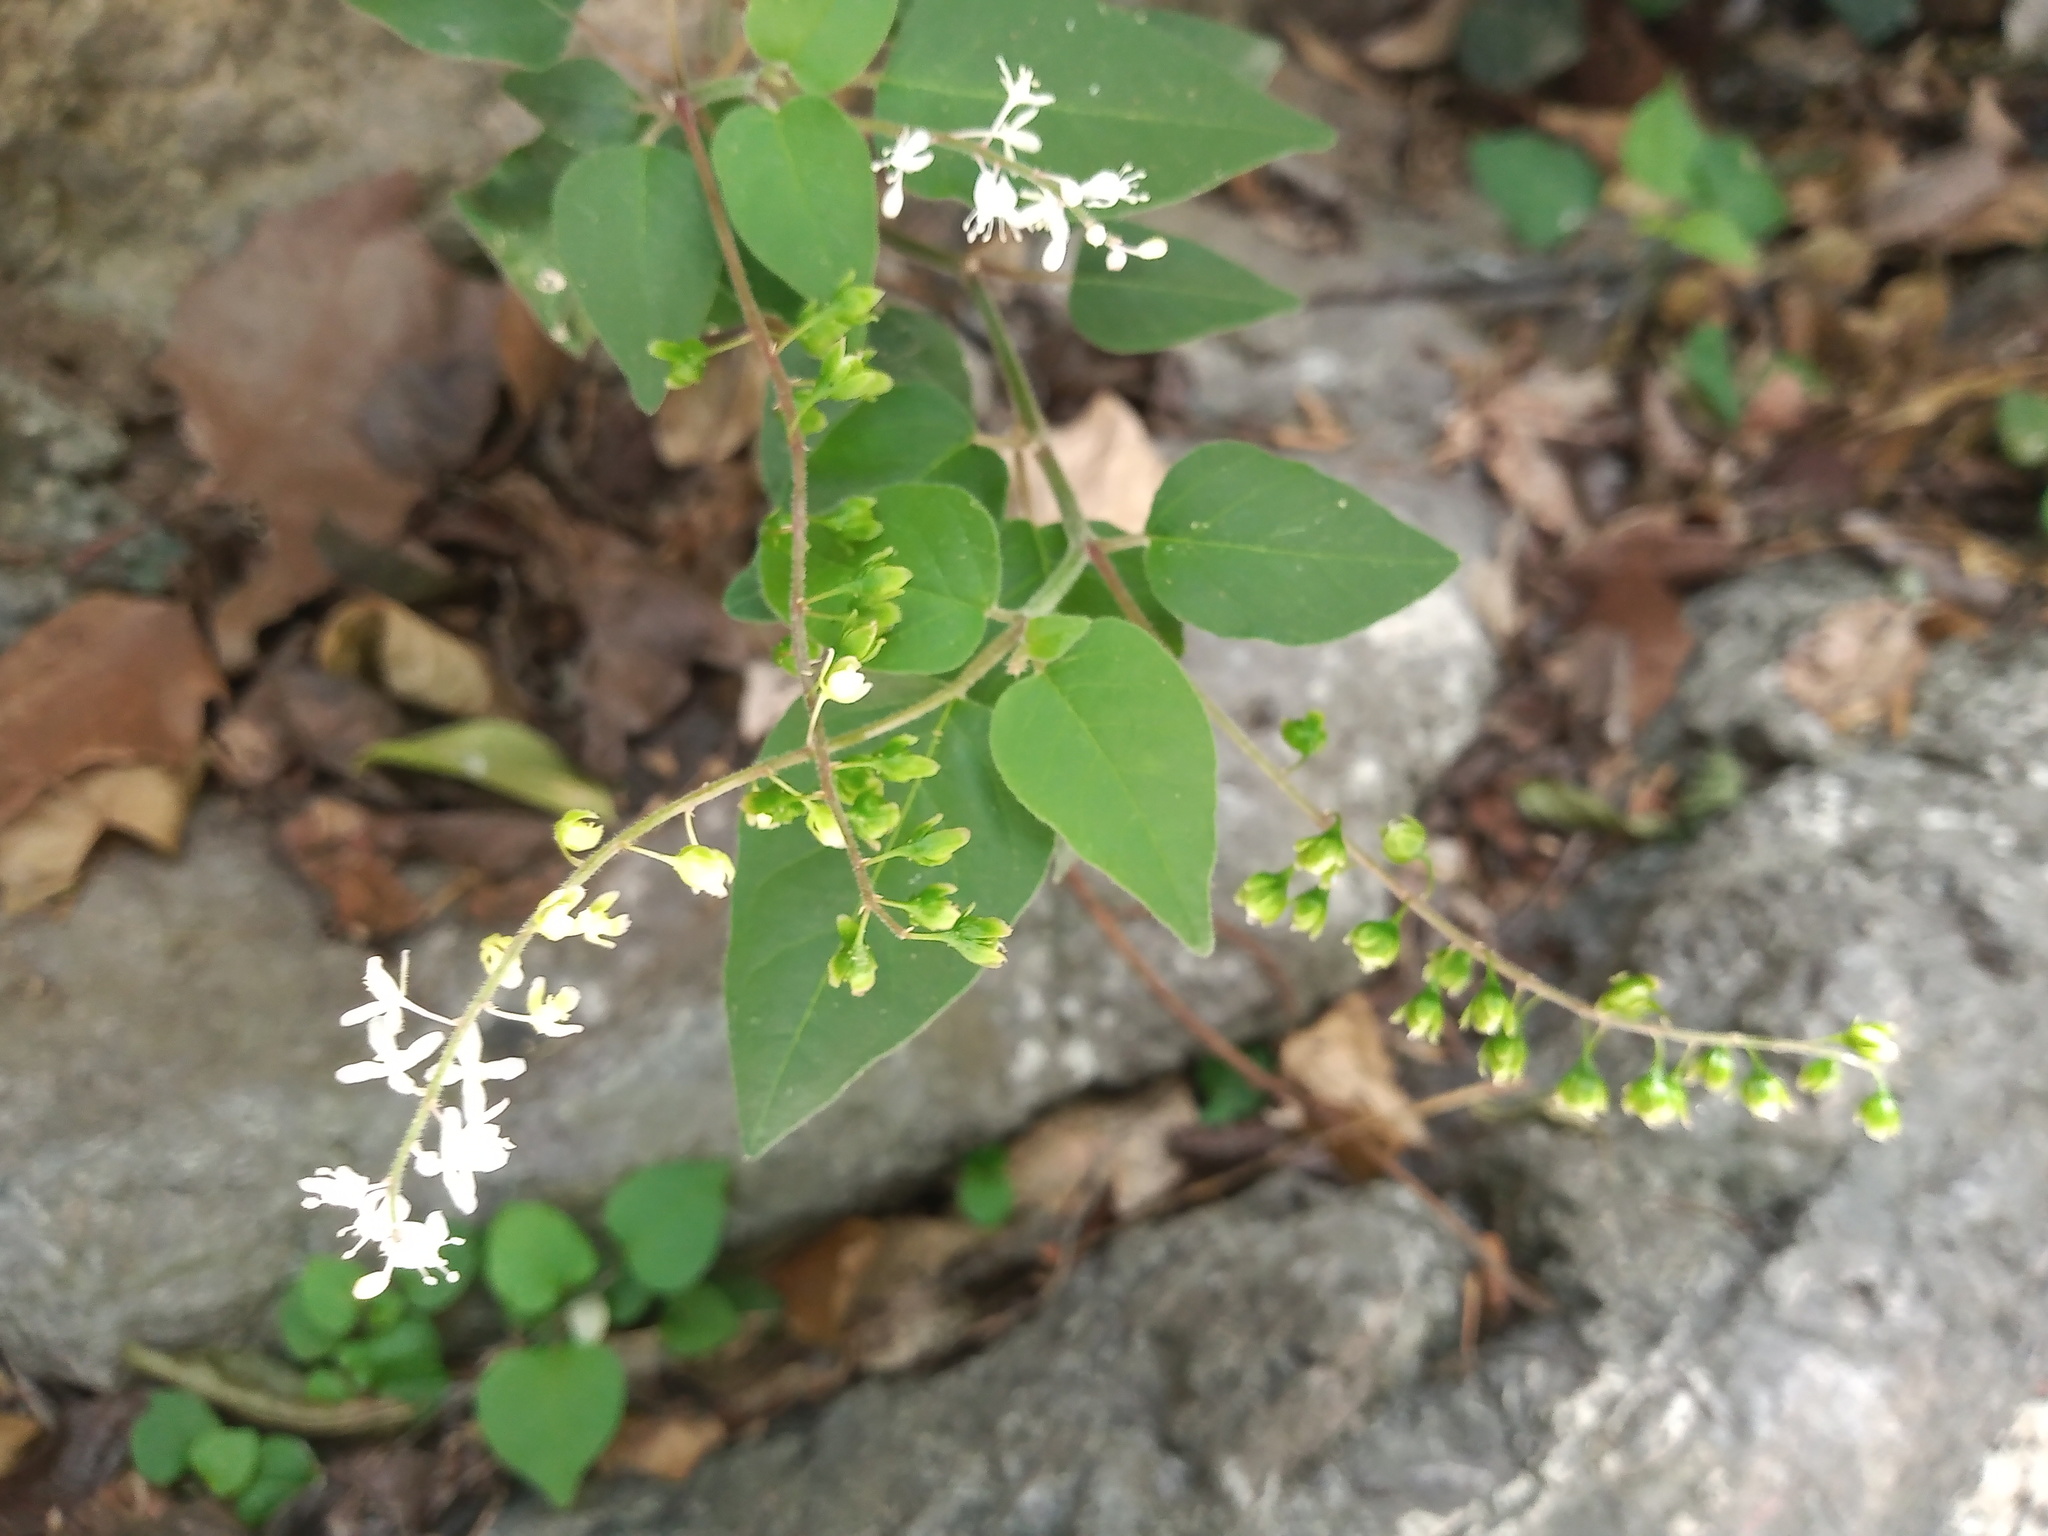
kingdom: Plantae
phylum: Tracheophyta
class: Magnoliopsida
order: Caryophyllales
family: Phytolaccaceae
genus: Rivina
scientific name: Rivina humilis
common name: Rougeplant
